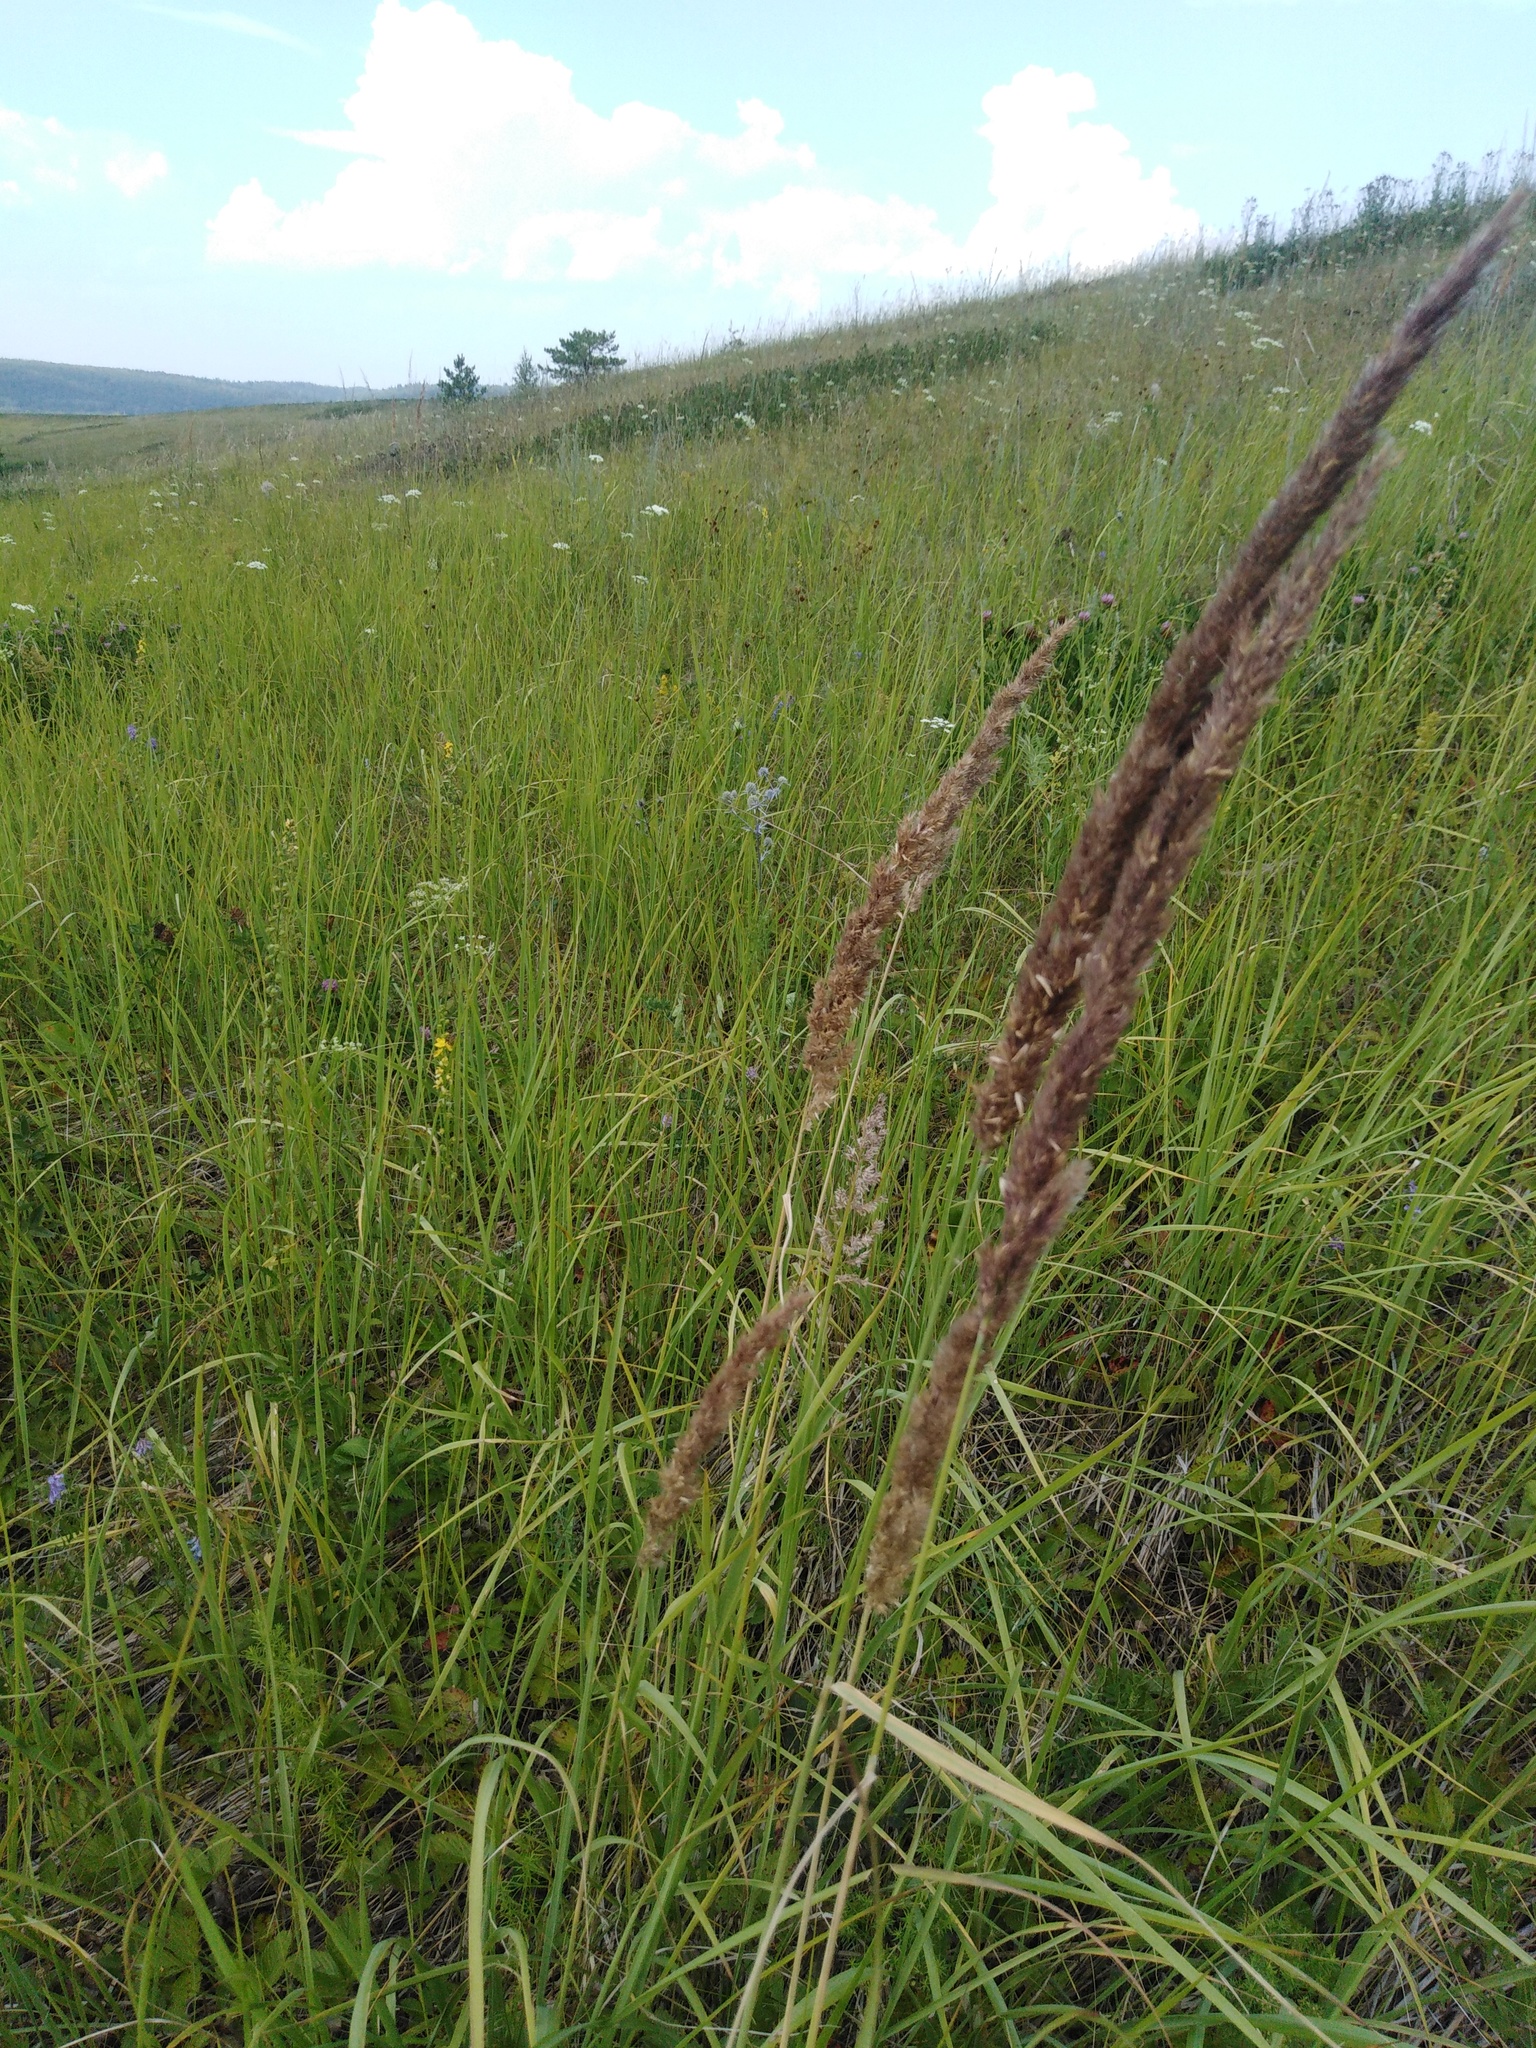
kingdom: Plantae
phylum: Tracheophyta
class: Liliopsida
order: Poales
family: Poaceae
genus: Calamagrostis
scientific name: Calamagrostis epigejos
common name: Wood small-reed
